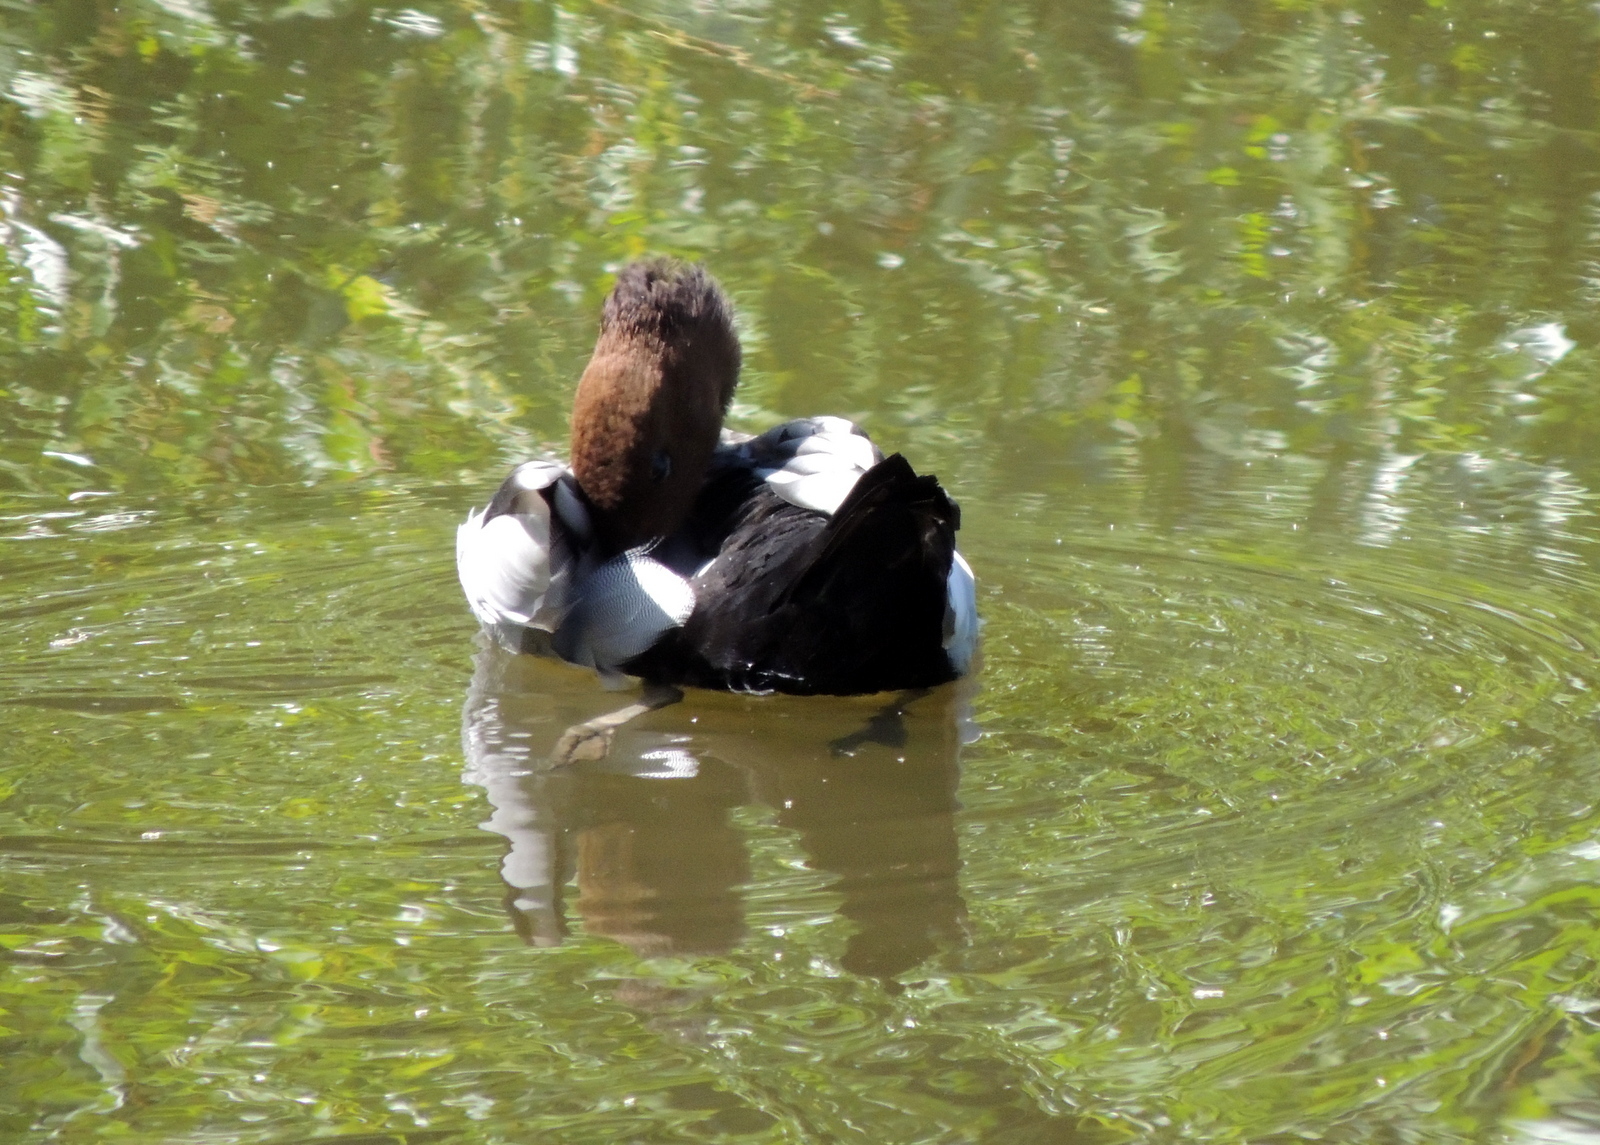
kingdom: Animalia
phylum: Chordata
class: Aves
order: Anseriformes
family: Anatidae
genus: Chenonetta
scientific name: Chenonetta jubata
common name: Maned duck
